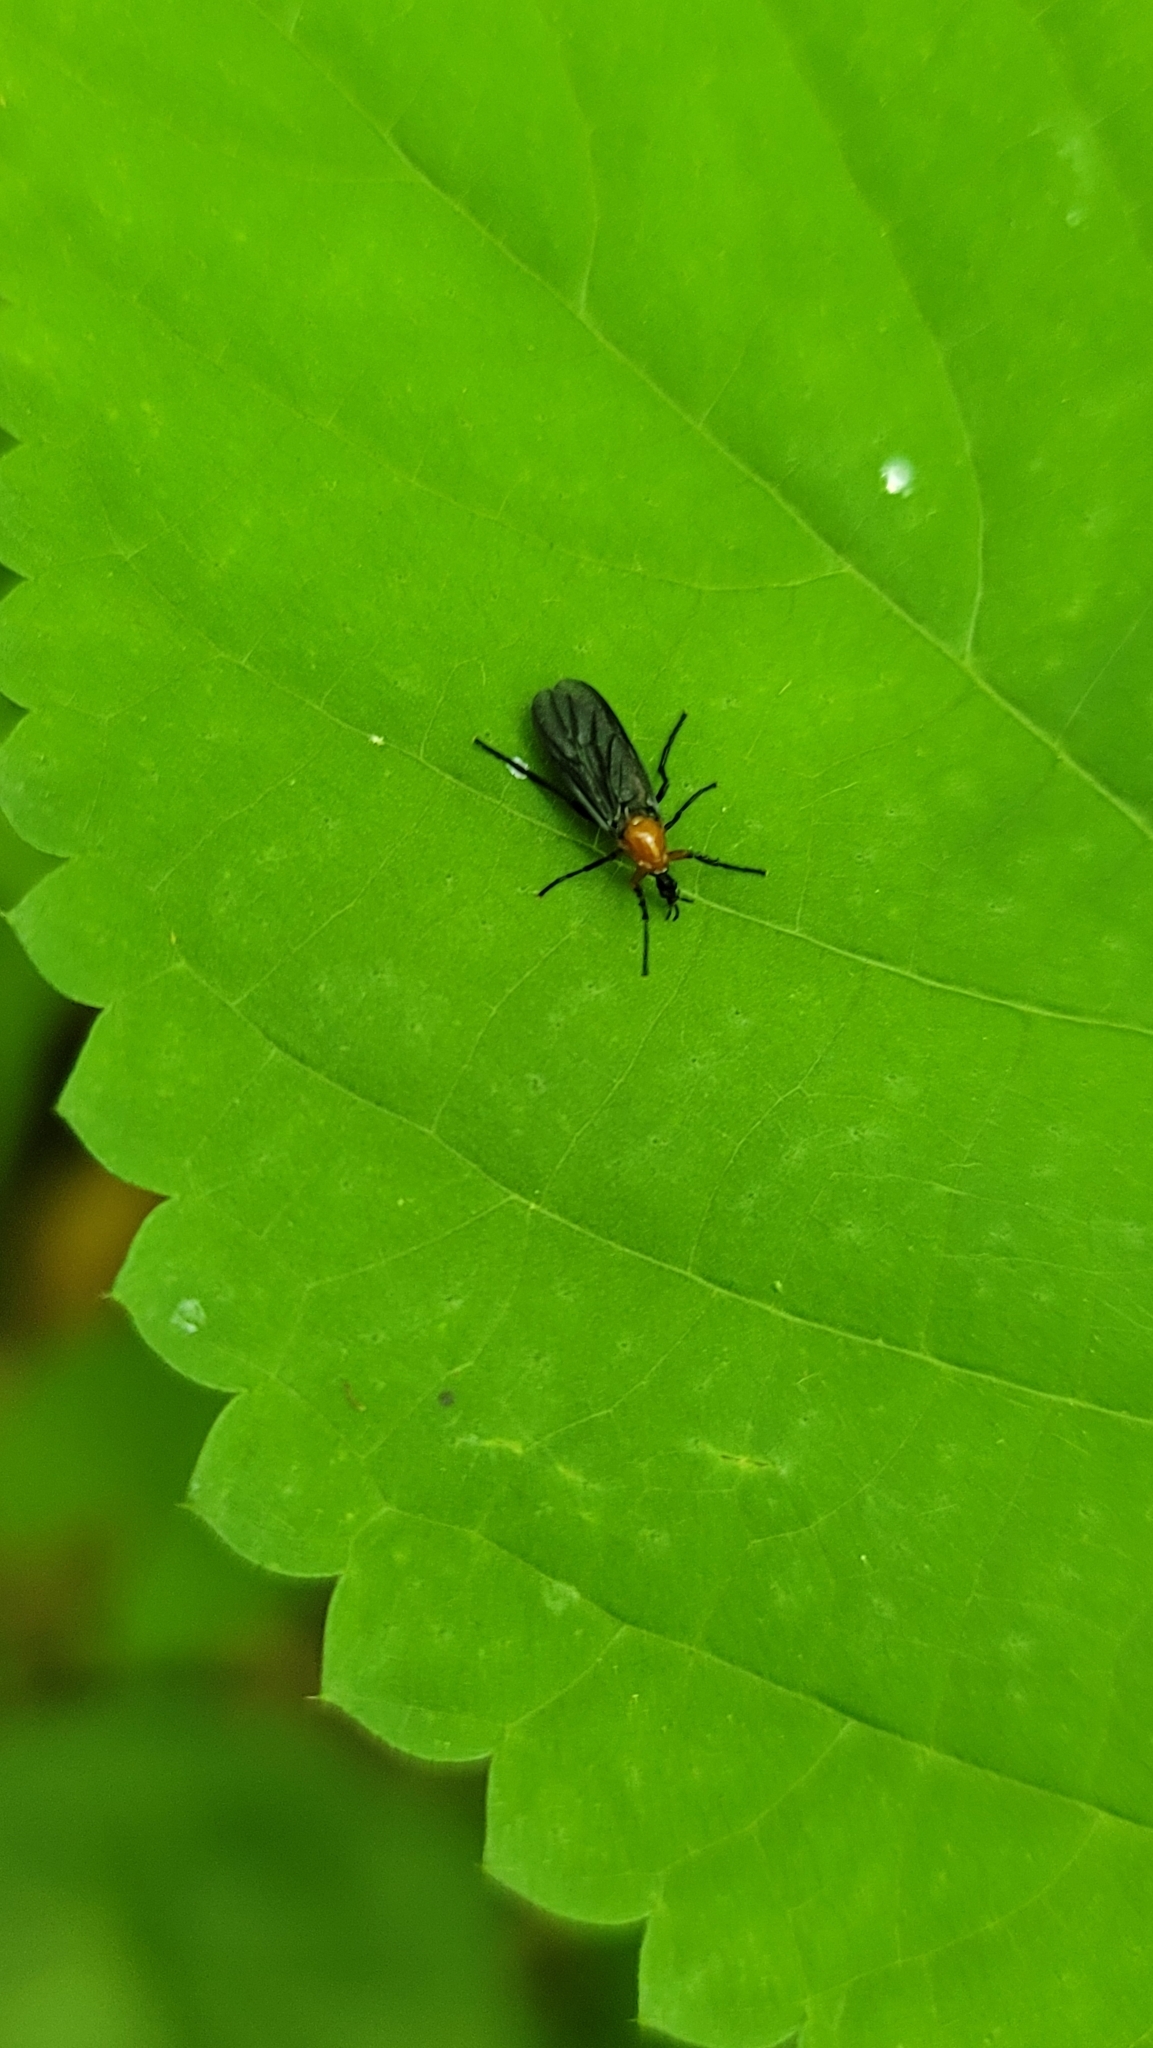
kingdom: Animalia
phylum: Arthropoda
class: Insecta
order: Diptera
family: Bibionidae
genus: Dilophus
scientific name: Dilophus spinipes
